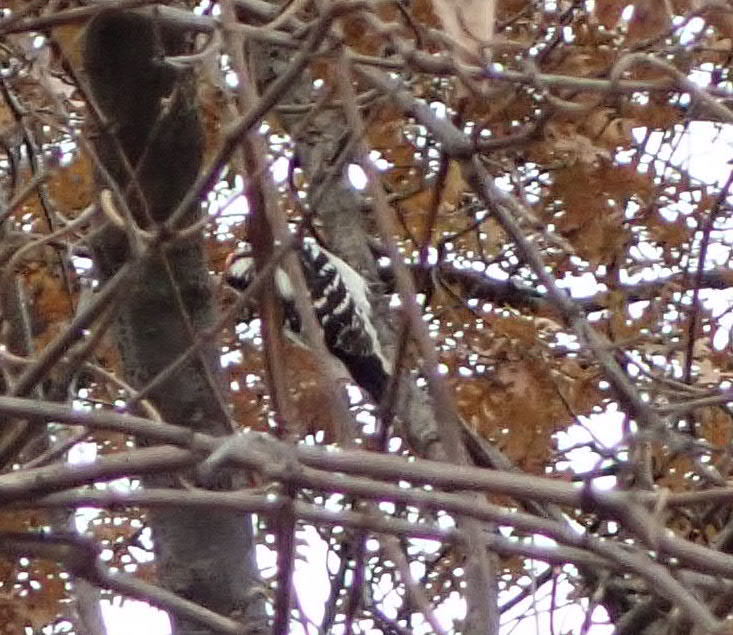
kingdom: Animalia
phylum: Chordata
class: Aves
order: Piciformes
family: Picidae
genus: Dryobates
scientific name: Dryobates pubescens
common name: Downy woodpecker
